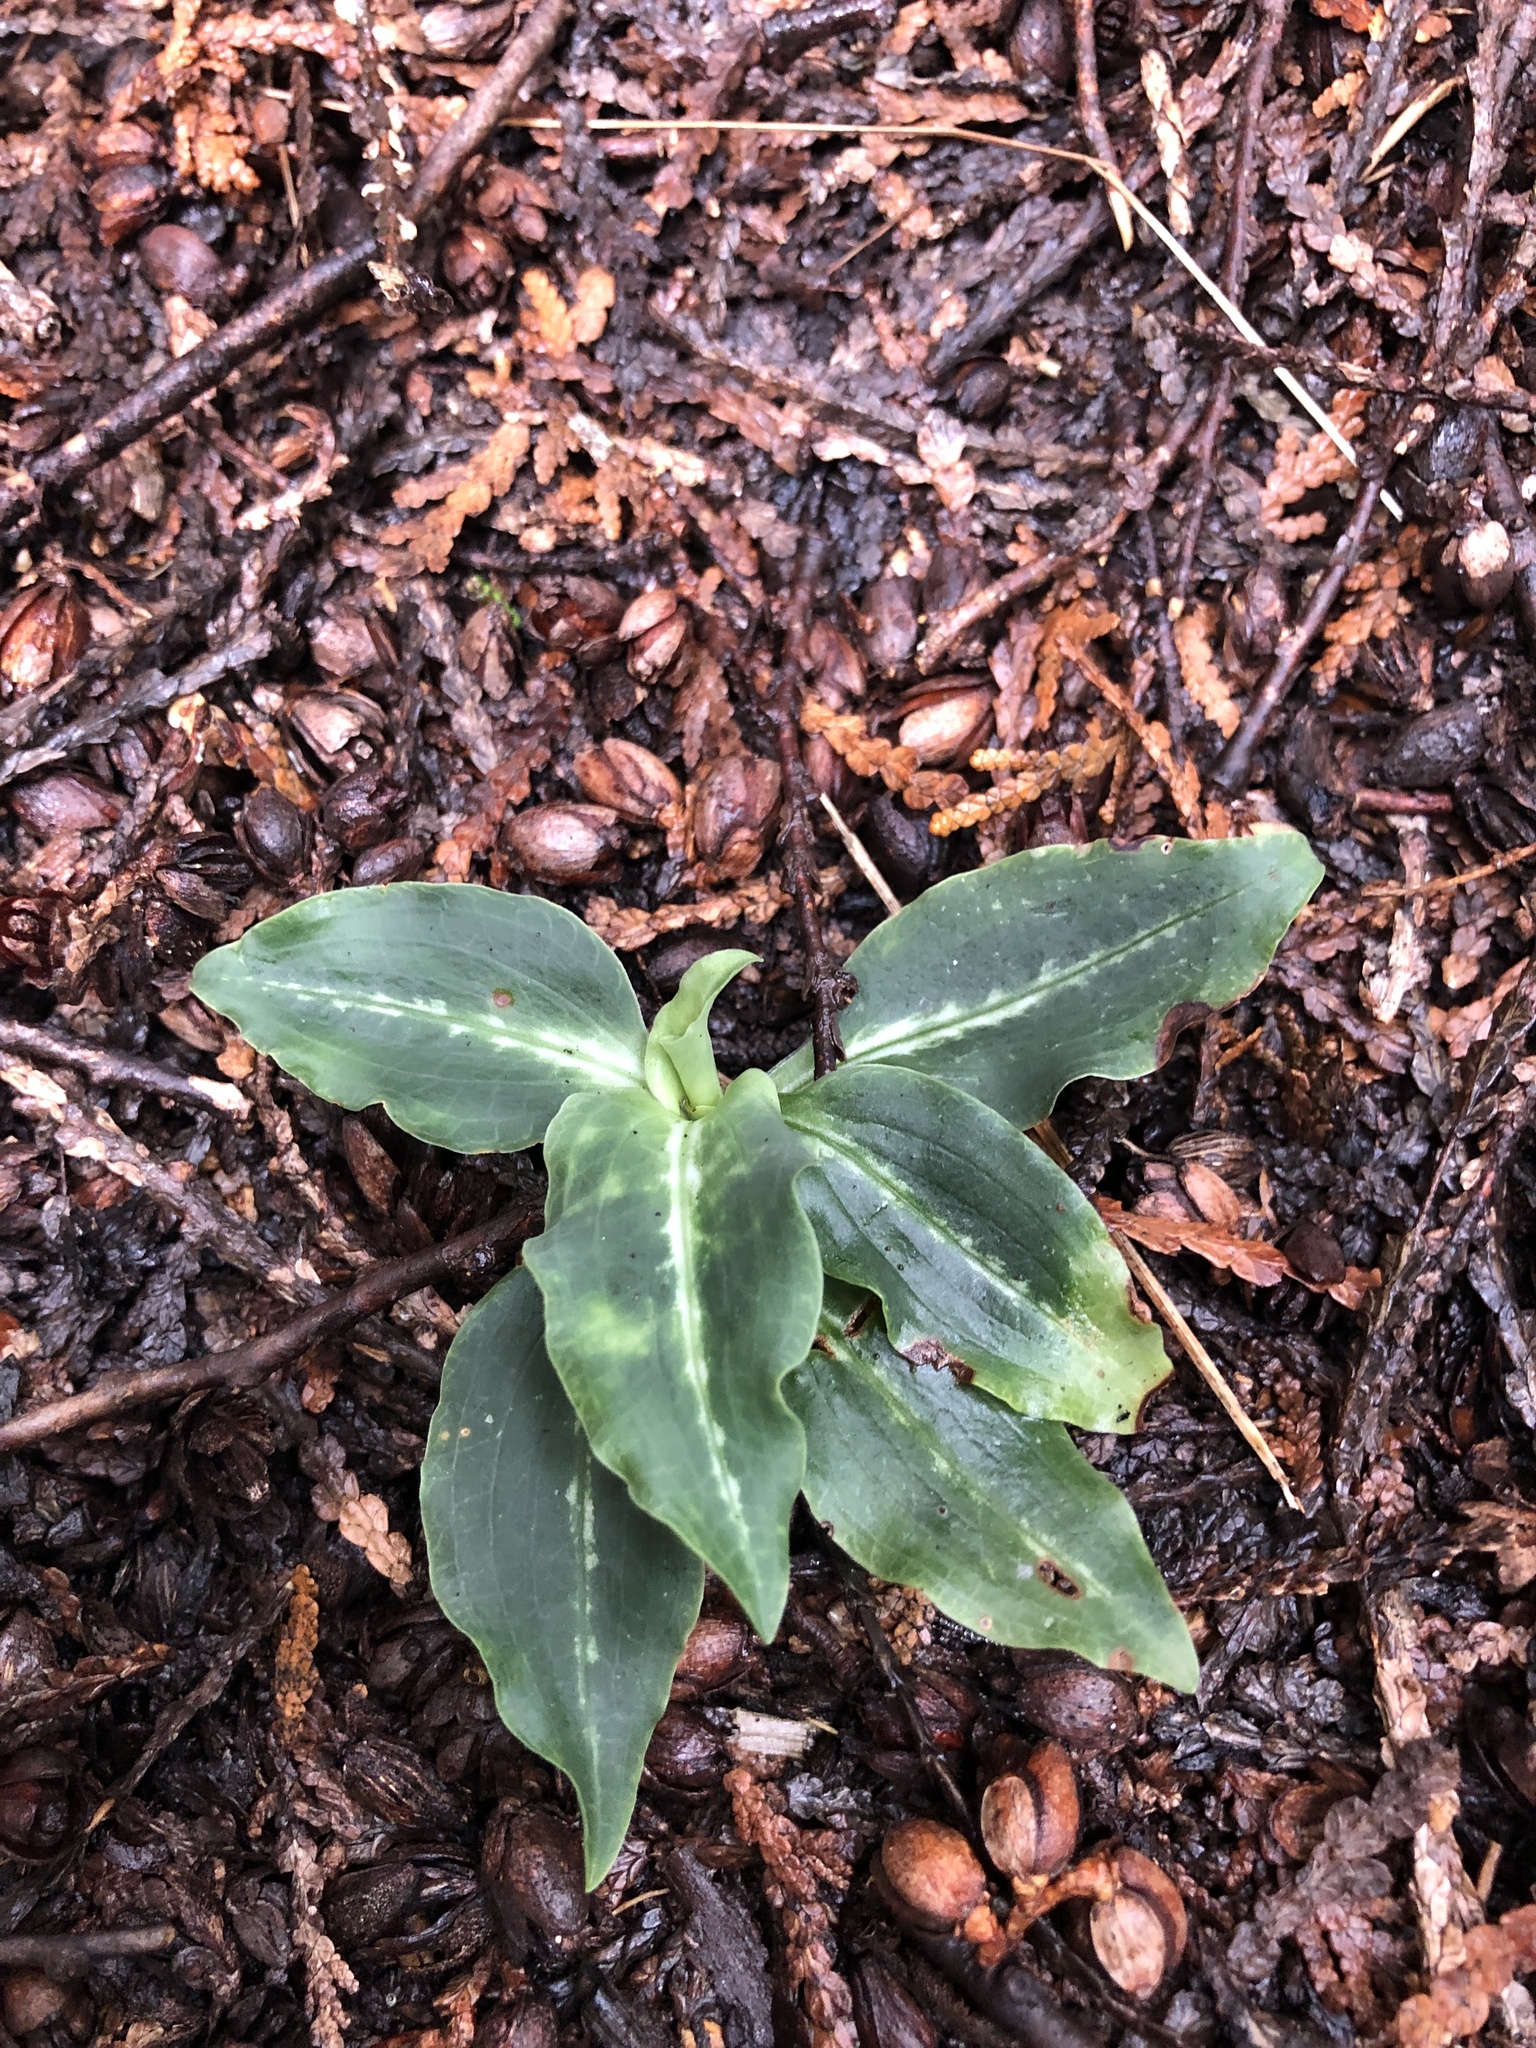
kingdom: Plantae
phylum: Tracheophyta
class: Liliopsida
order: Asparagales
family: Orchidaceae
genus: Goodyera
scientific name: Goodyera oblongifolia
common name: Giant rattlesnake-plantain
